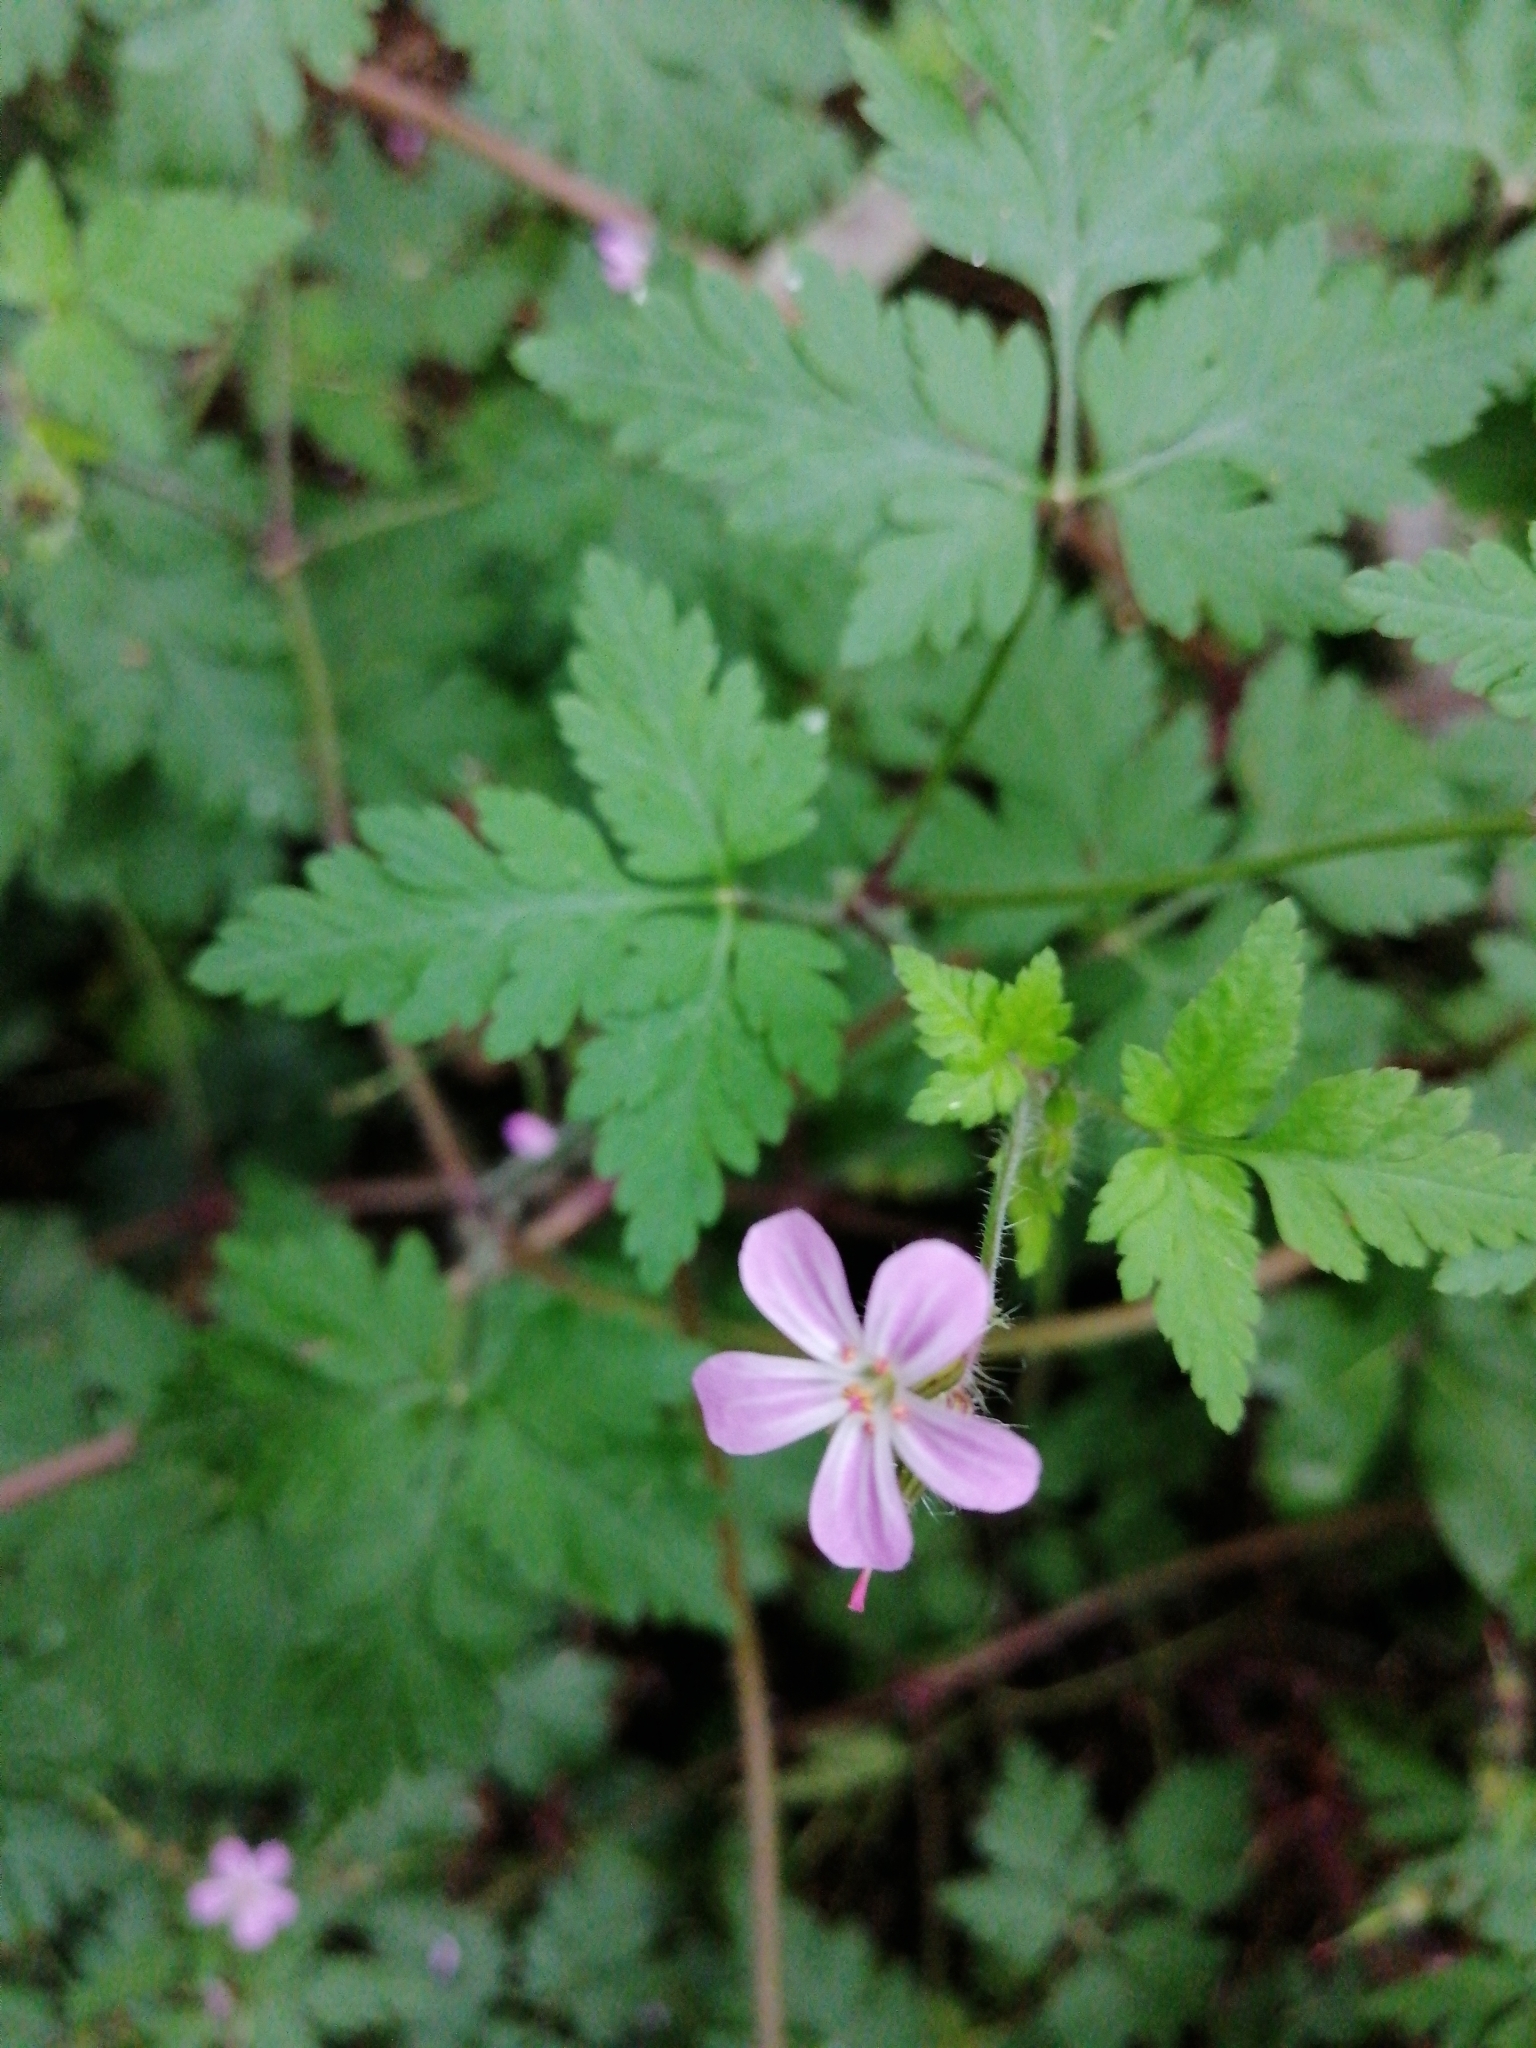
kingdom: Plantae
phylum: Tracheophyta
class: Magnoliopsida
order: Geraniales
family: Geraniaceae
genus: Geranium
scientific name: Geranium robertianum
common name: Herb-robert
